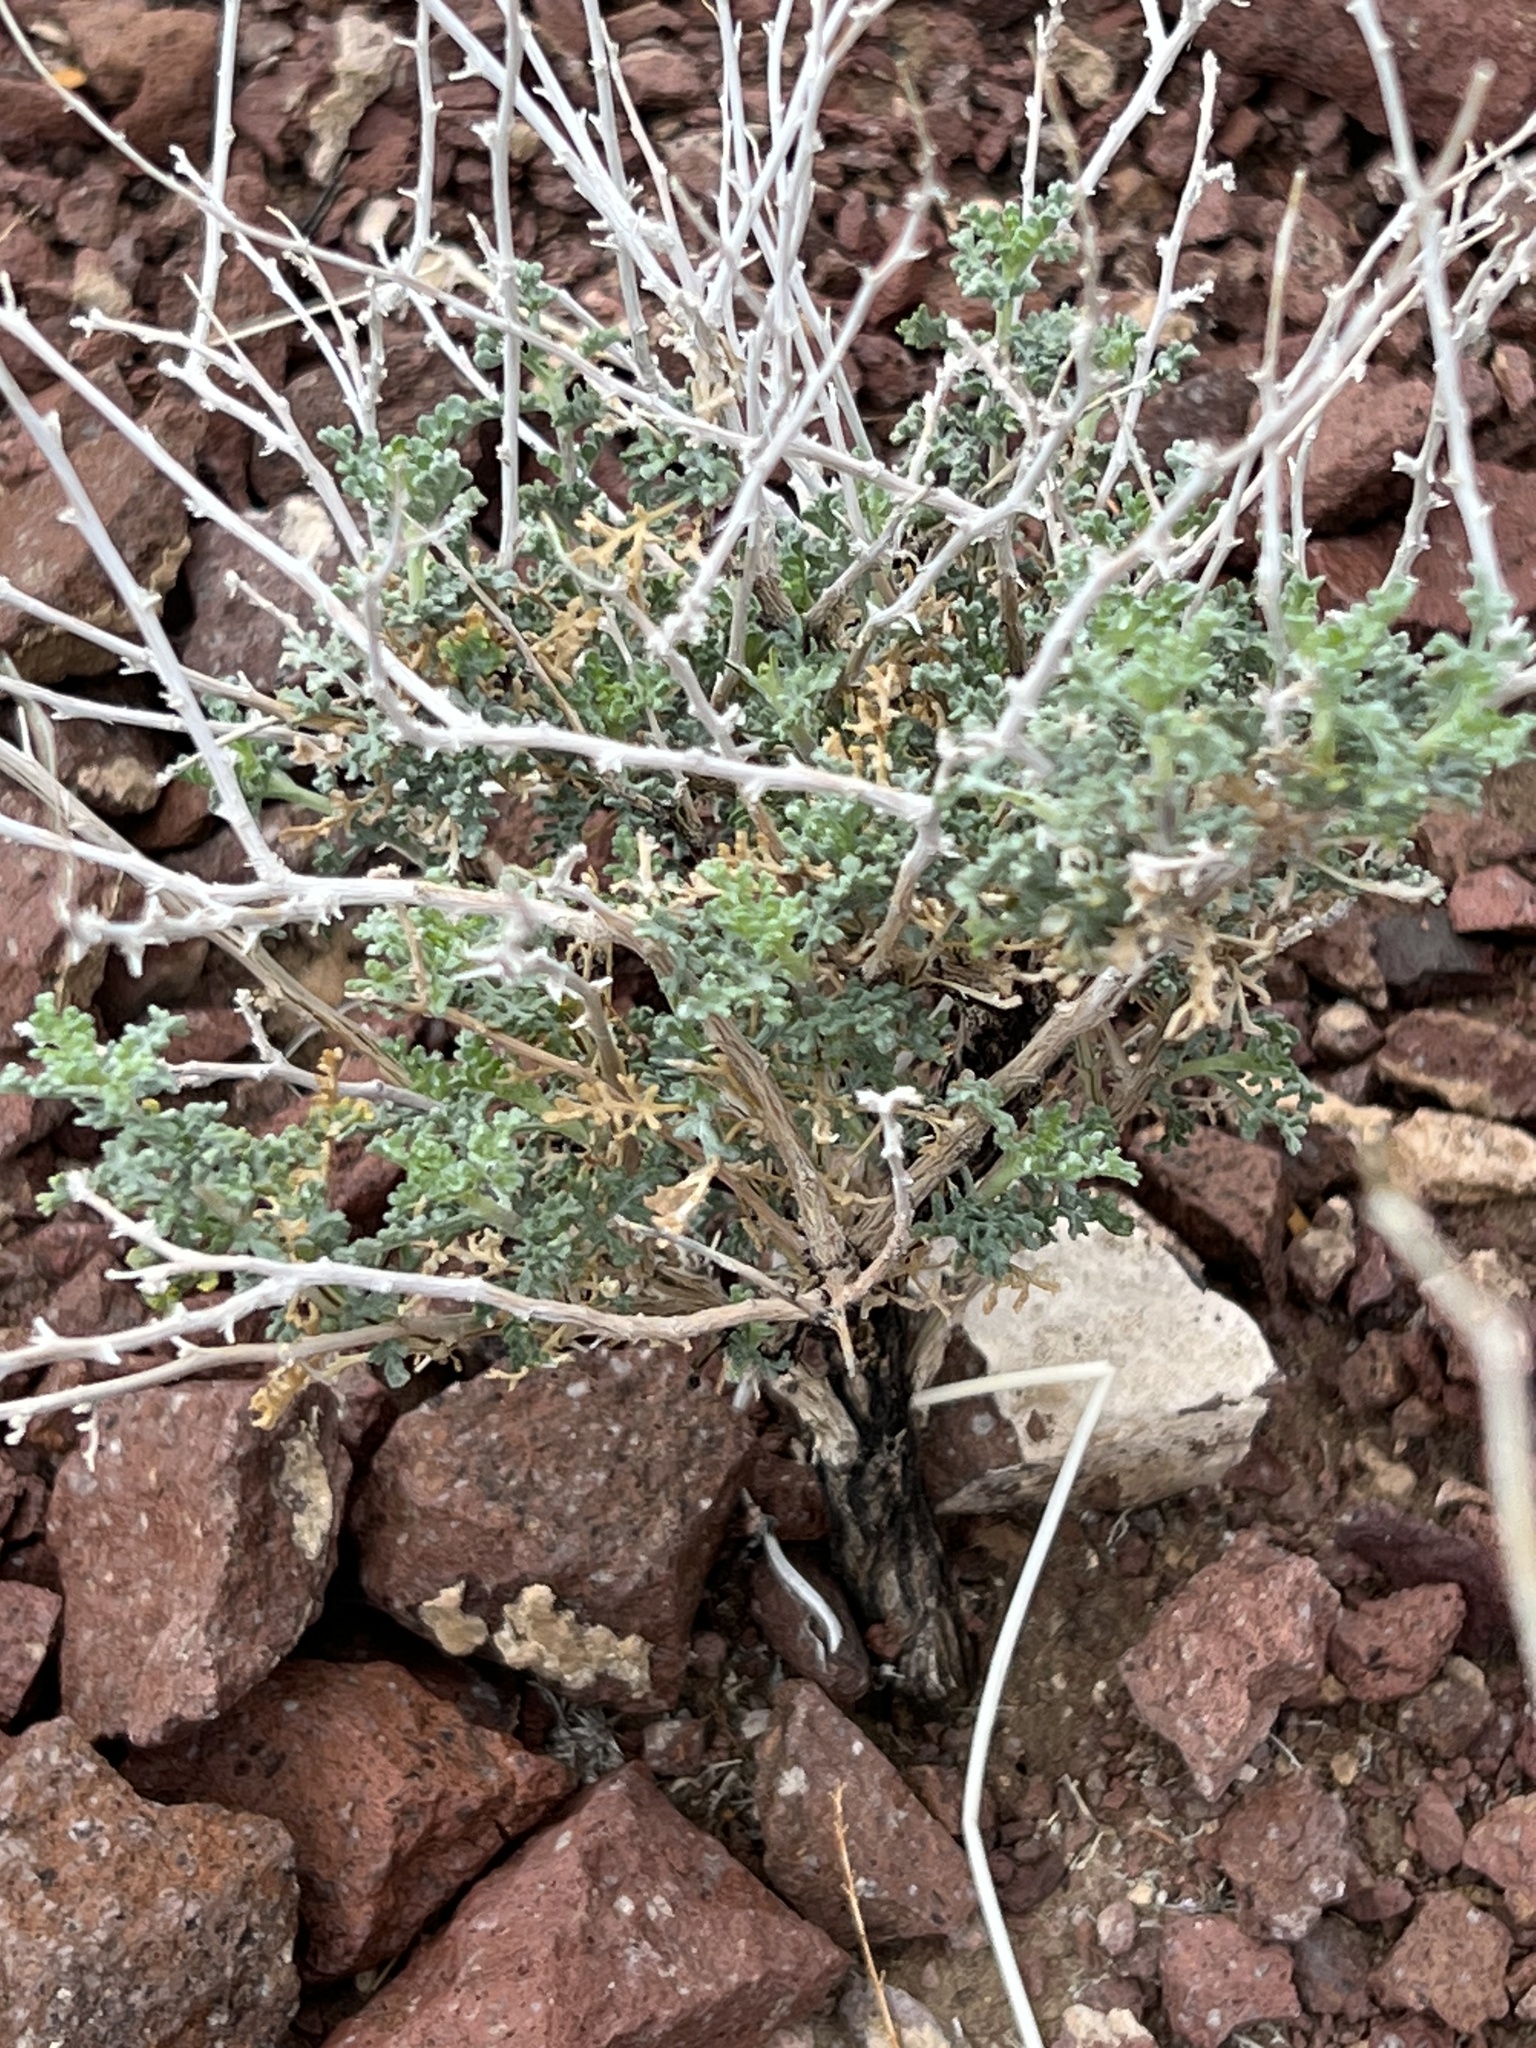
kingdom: Plantae
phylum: Tracheophyta
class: Magnoliopsida
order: Asterales
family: Asteraceae
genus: Ambrosia
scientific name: Ambrosia dumosa
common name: Bur-sage
